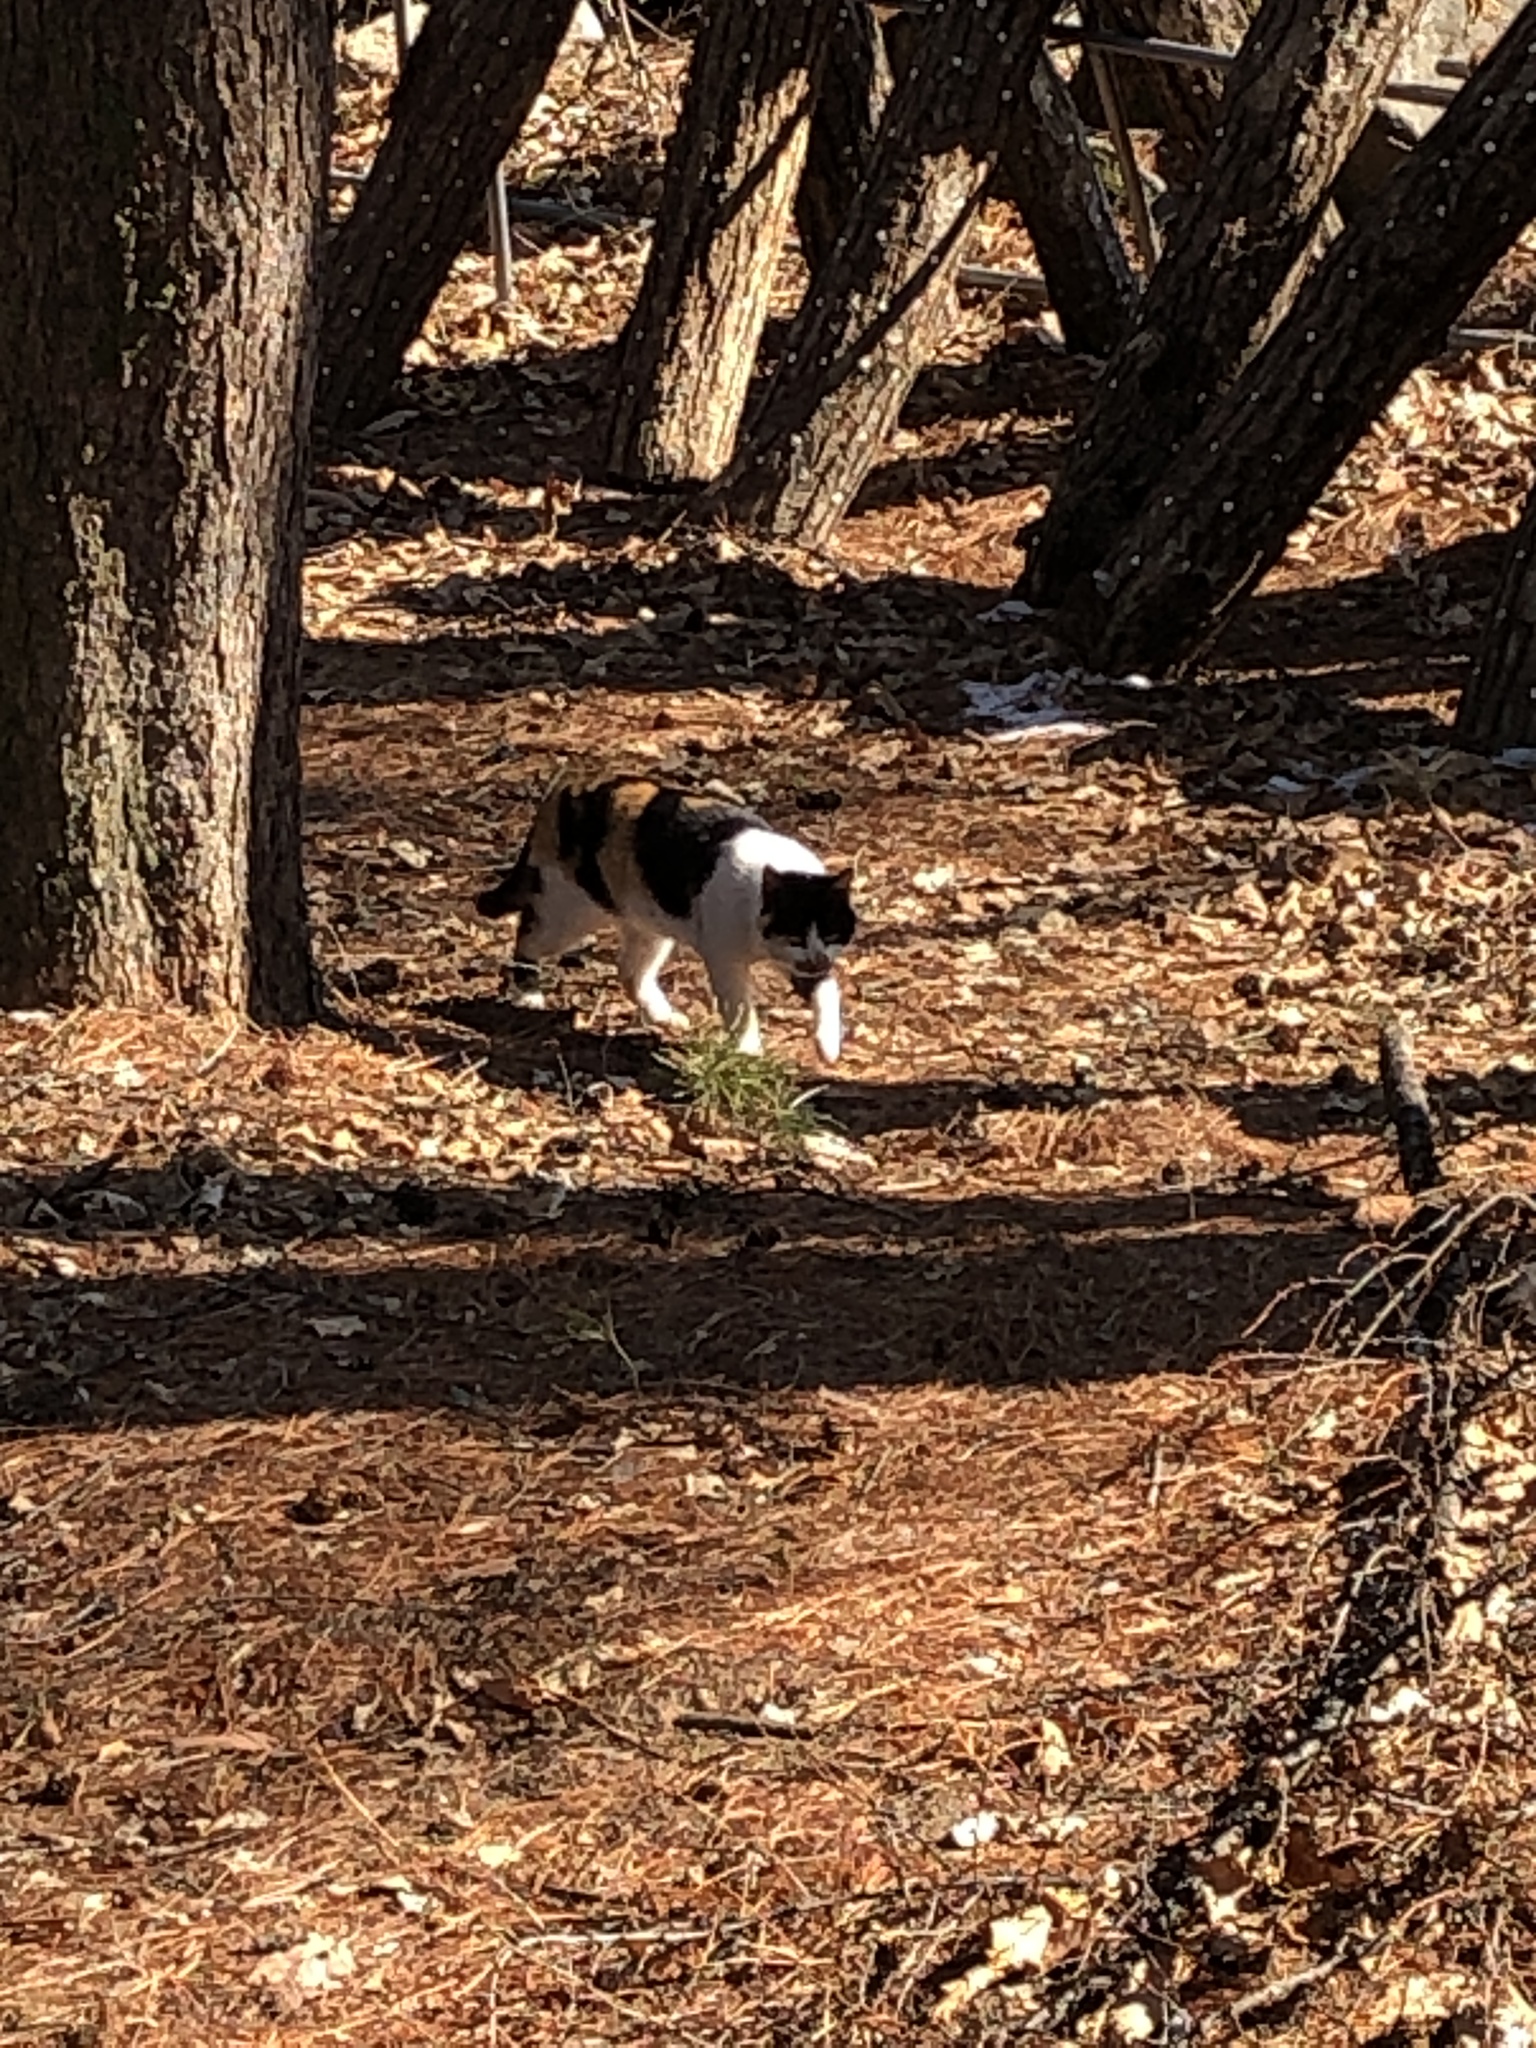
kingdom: Animalia
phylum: Chordata
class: Mammalia
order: Carnivora
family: Felidae
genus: Felis
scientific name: Felis catus
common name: Domestic cat
